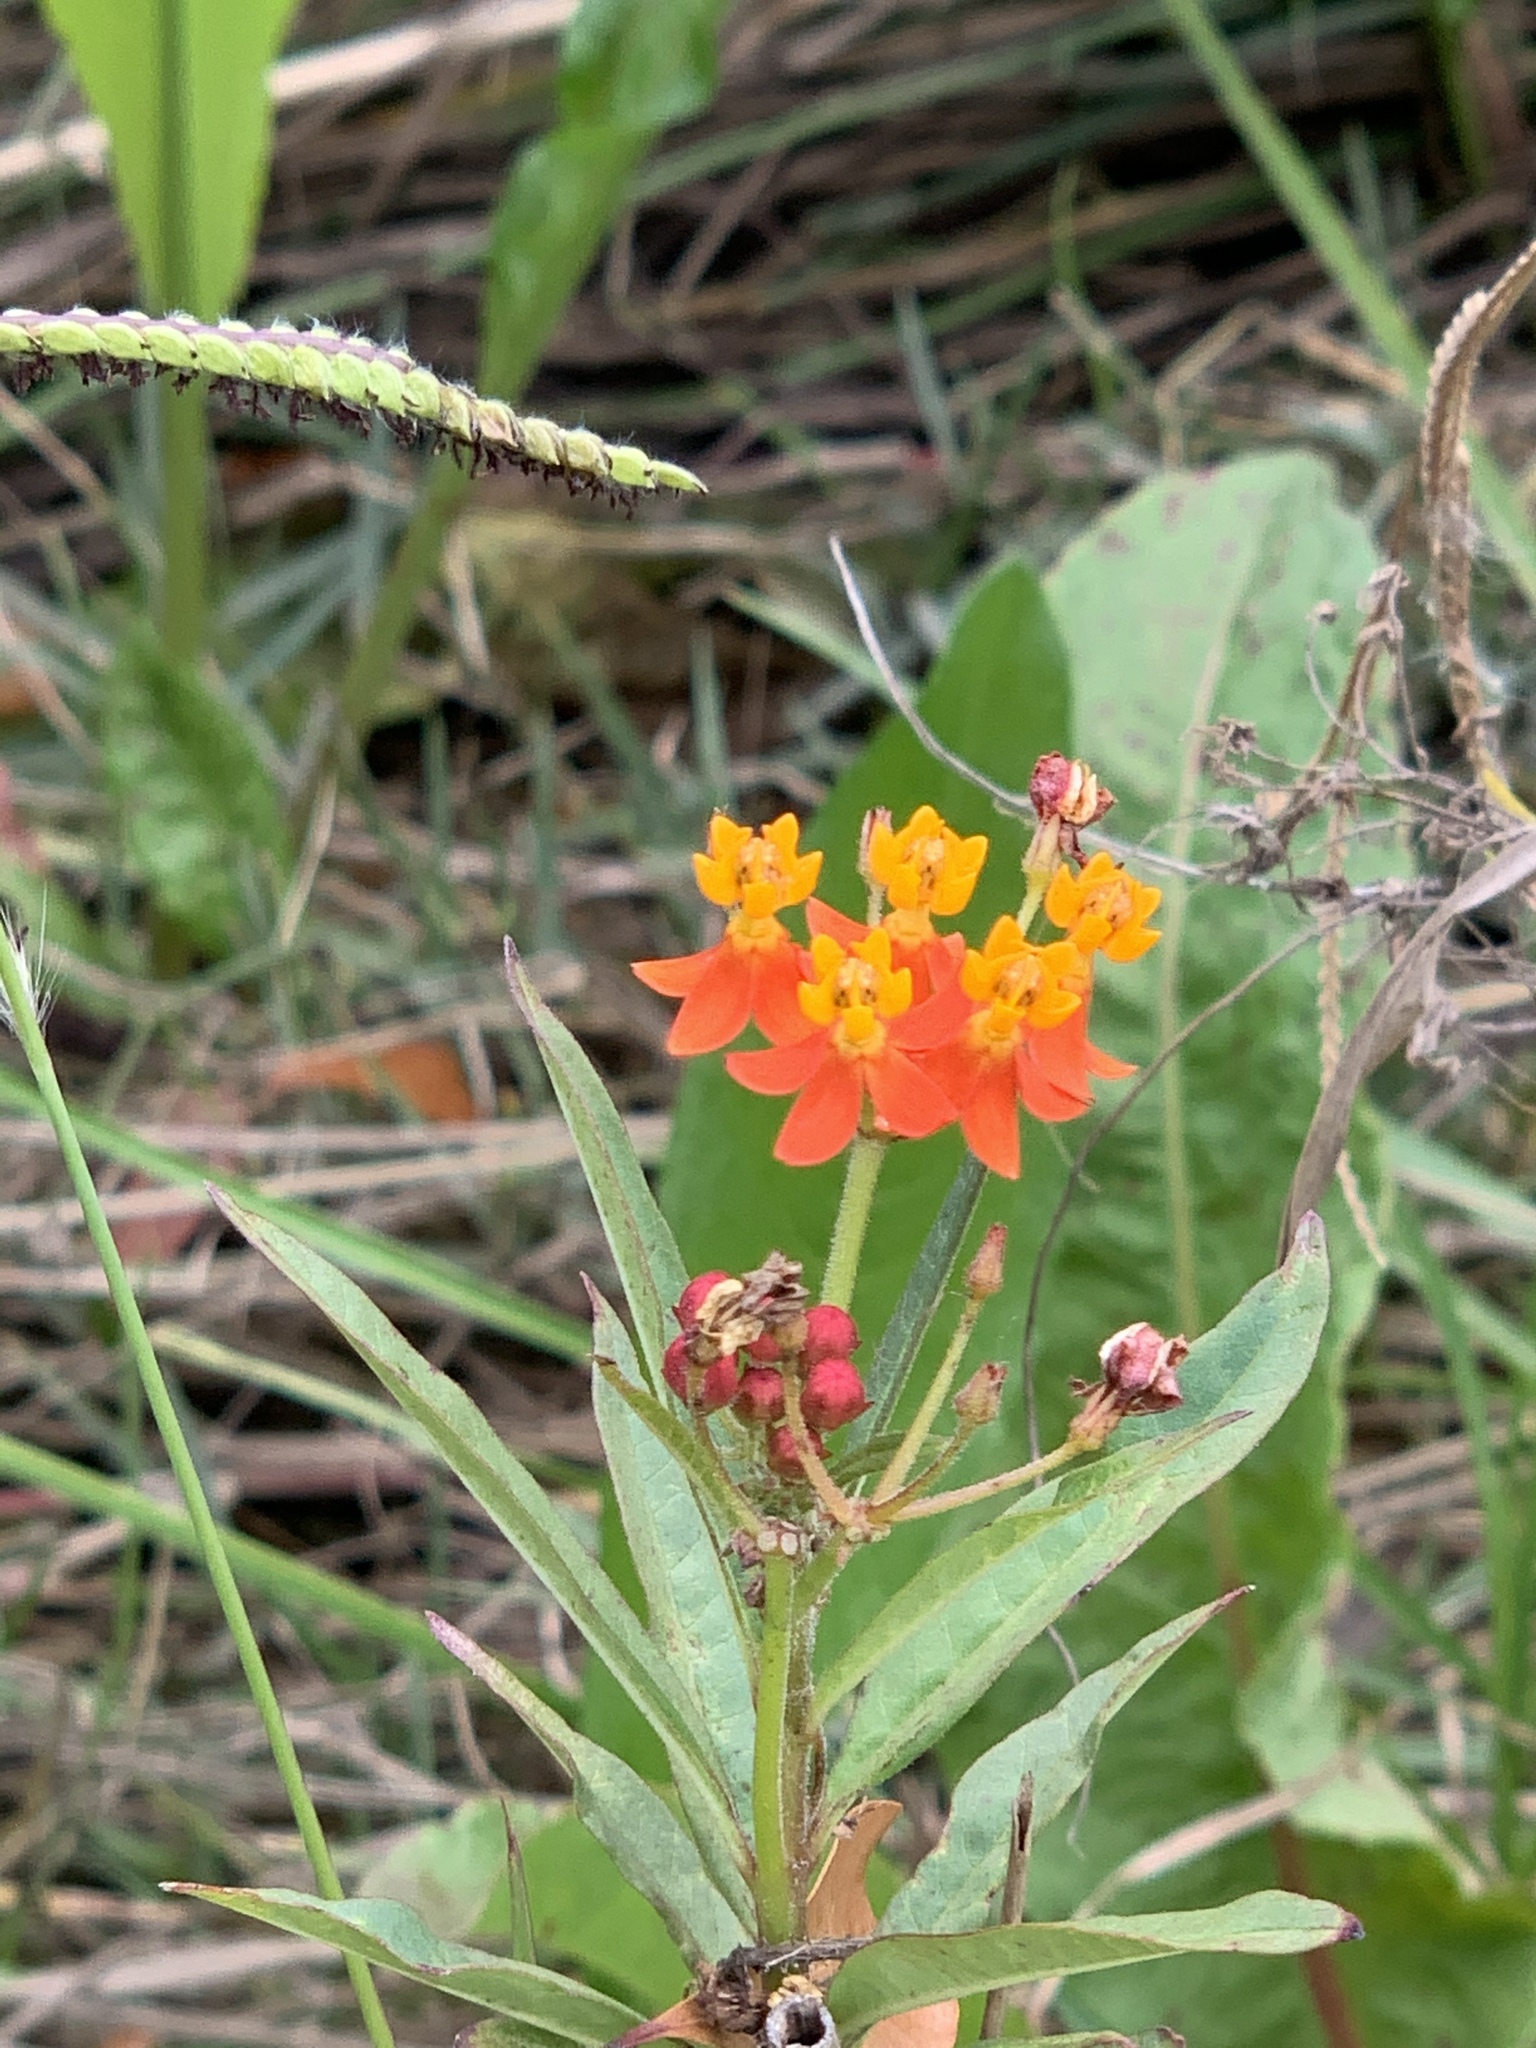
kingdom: Plantae
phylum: Tracheophyta
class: Magnoliopsida
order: Gentianales
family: Apocynaceae
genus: Asclepias
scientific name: Asclepias curassavica
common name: Bloodflower
